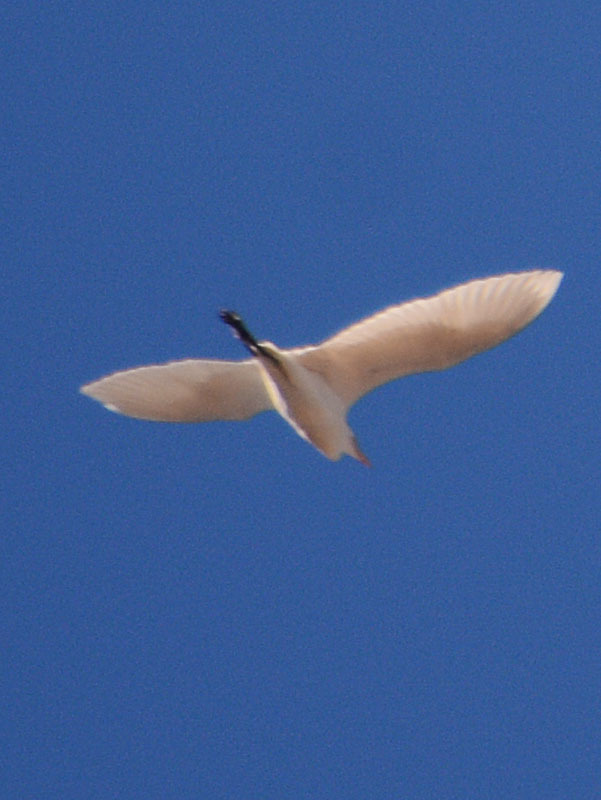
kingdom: Animalia
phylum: Chordata
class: Aves
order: Pelecaniformes
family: Ardeidae
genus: Bubulcus
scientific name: Bubulcus ibis
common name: Cattle egret
